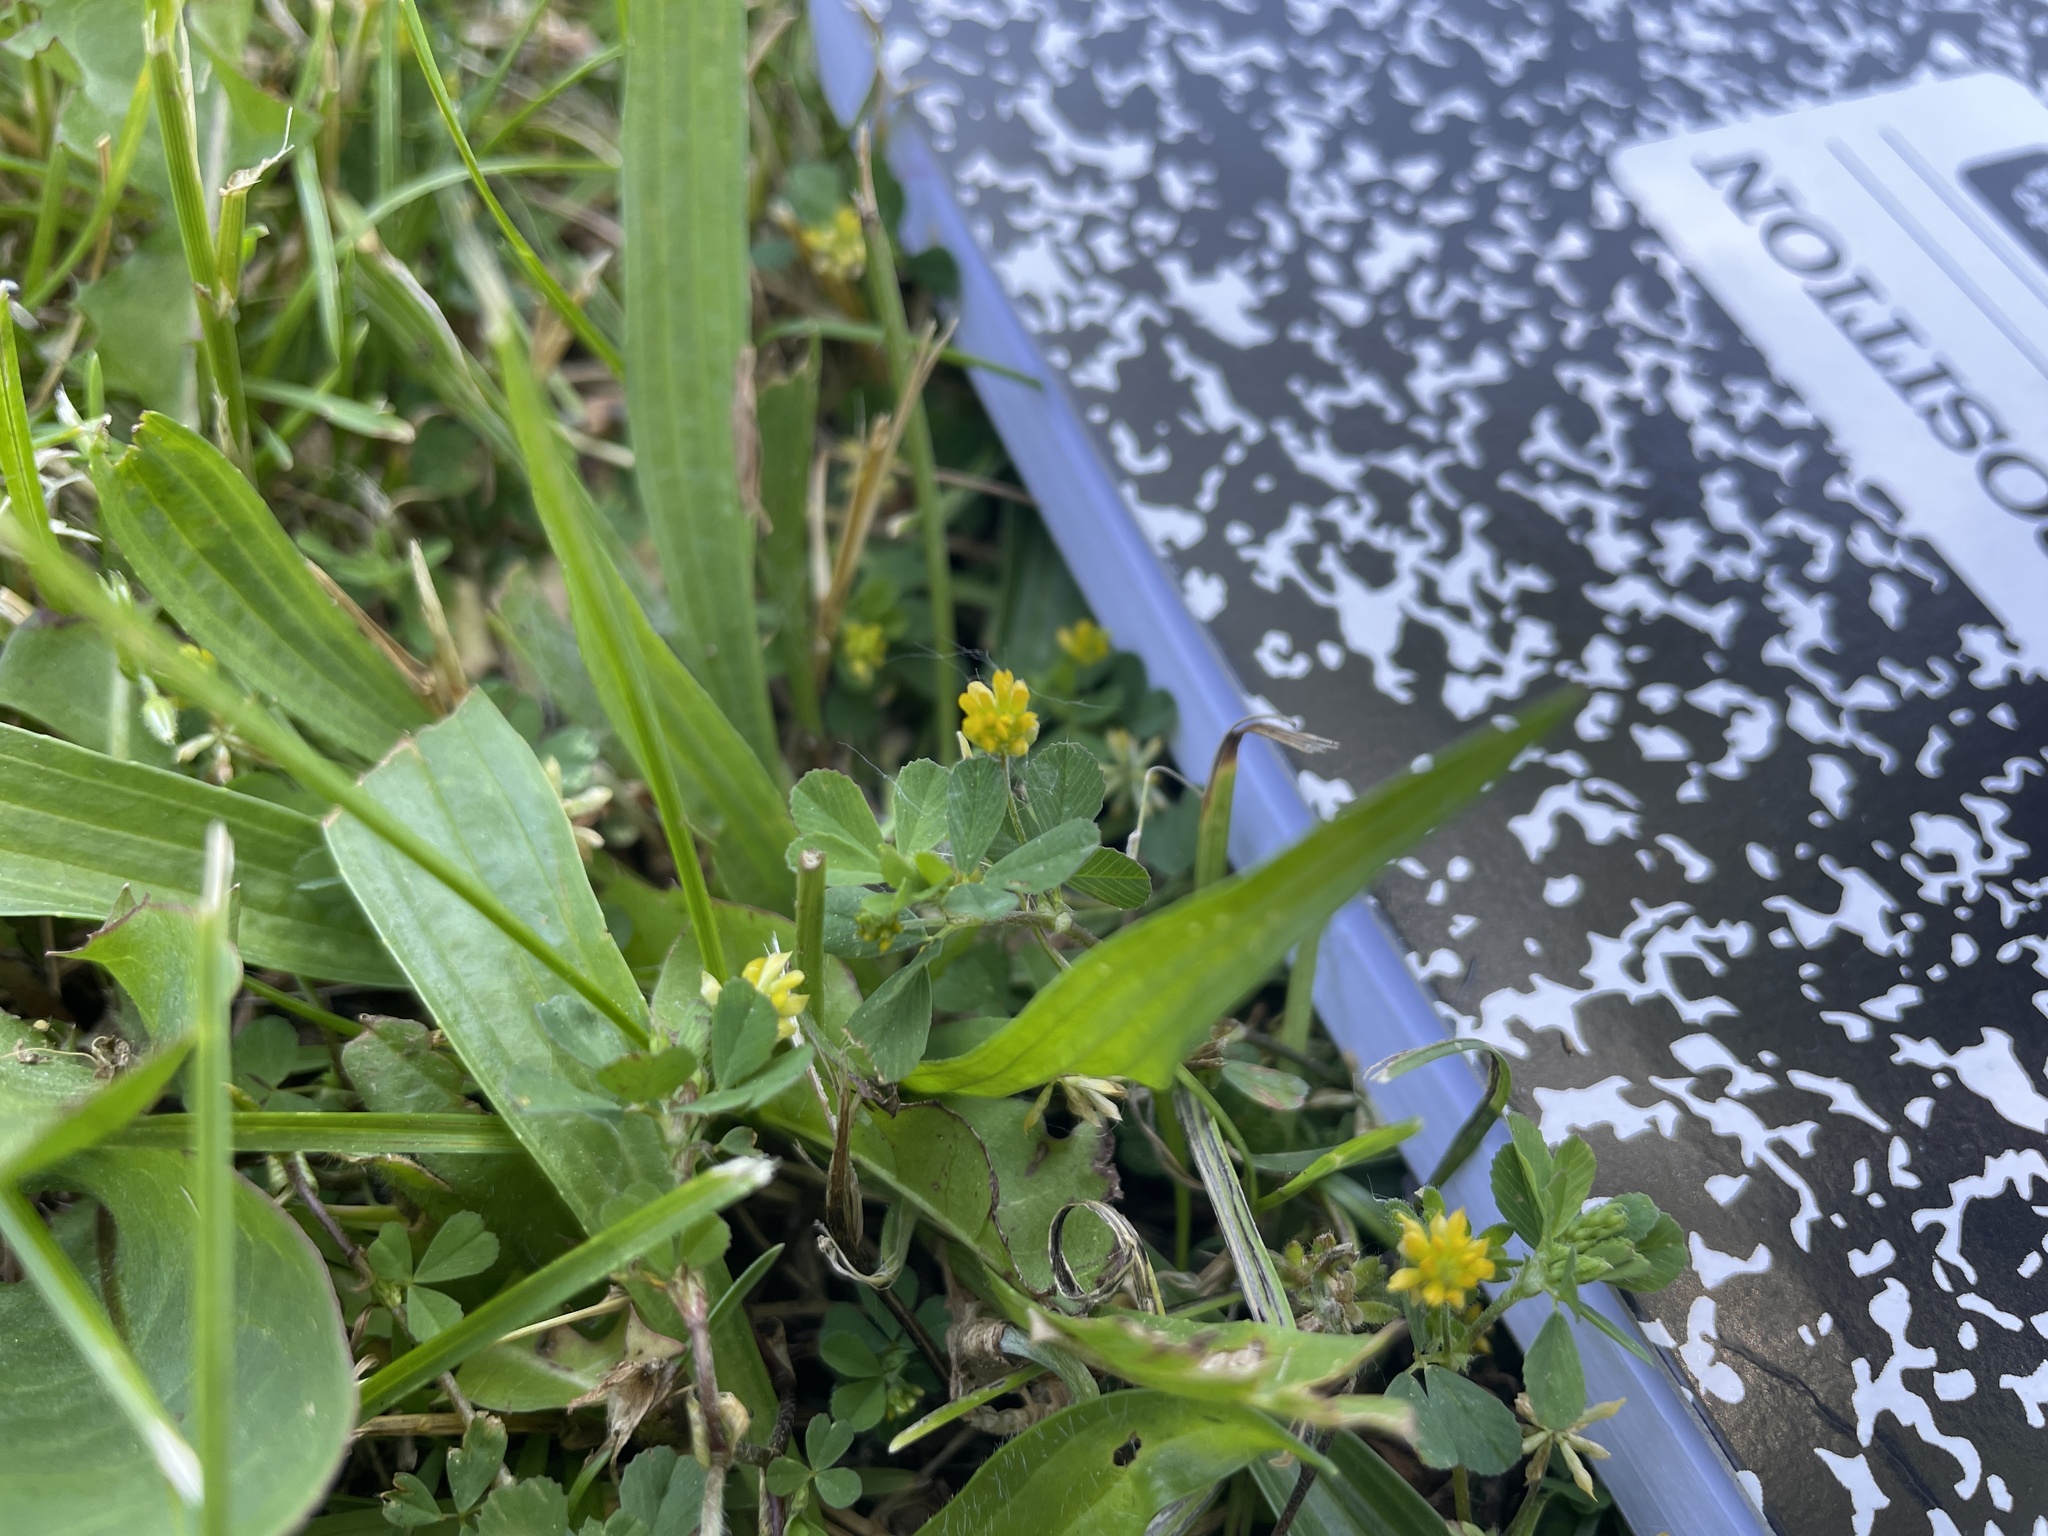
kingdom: Plantae
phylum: Tracheophyta
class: Magnoliopsida
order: Fabales
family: Fabaceae
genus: Trifolium
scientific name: Trifolium dubium
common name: Suckling clover
